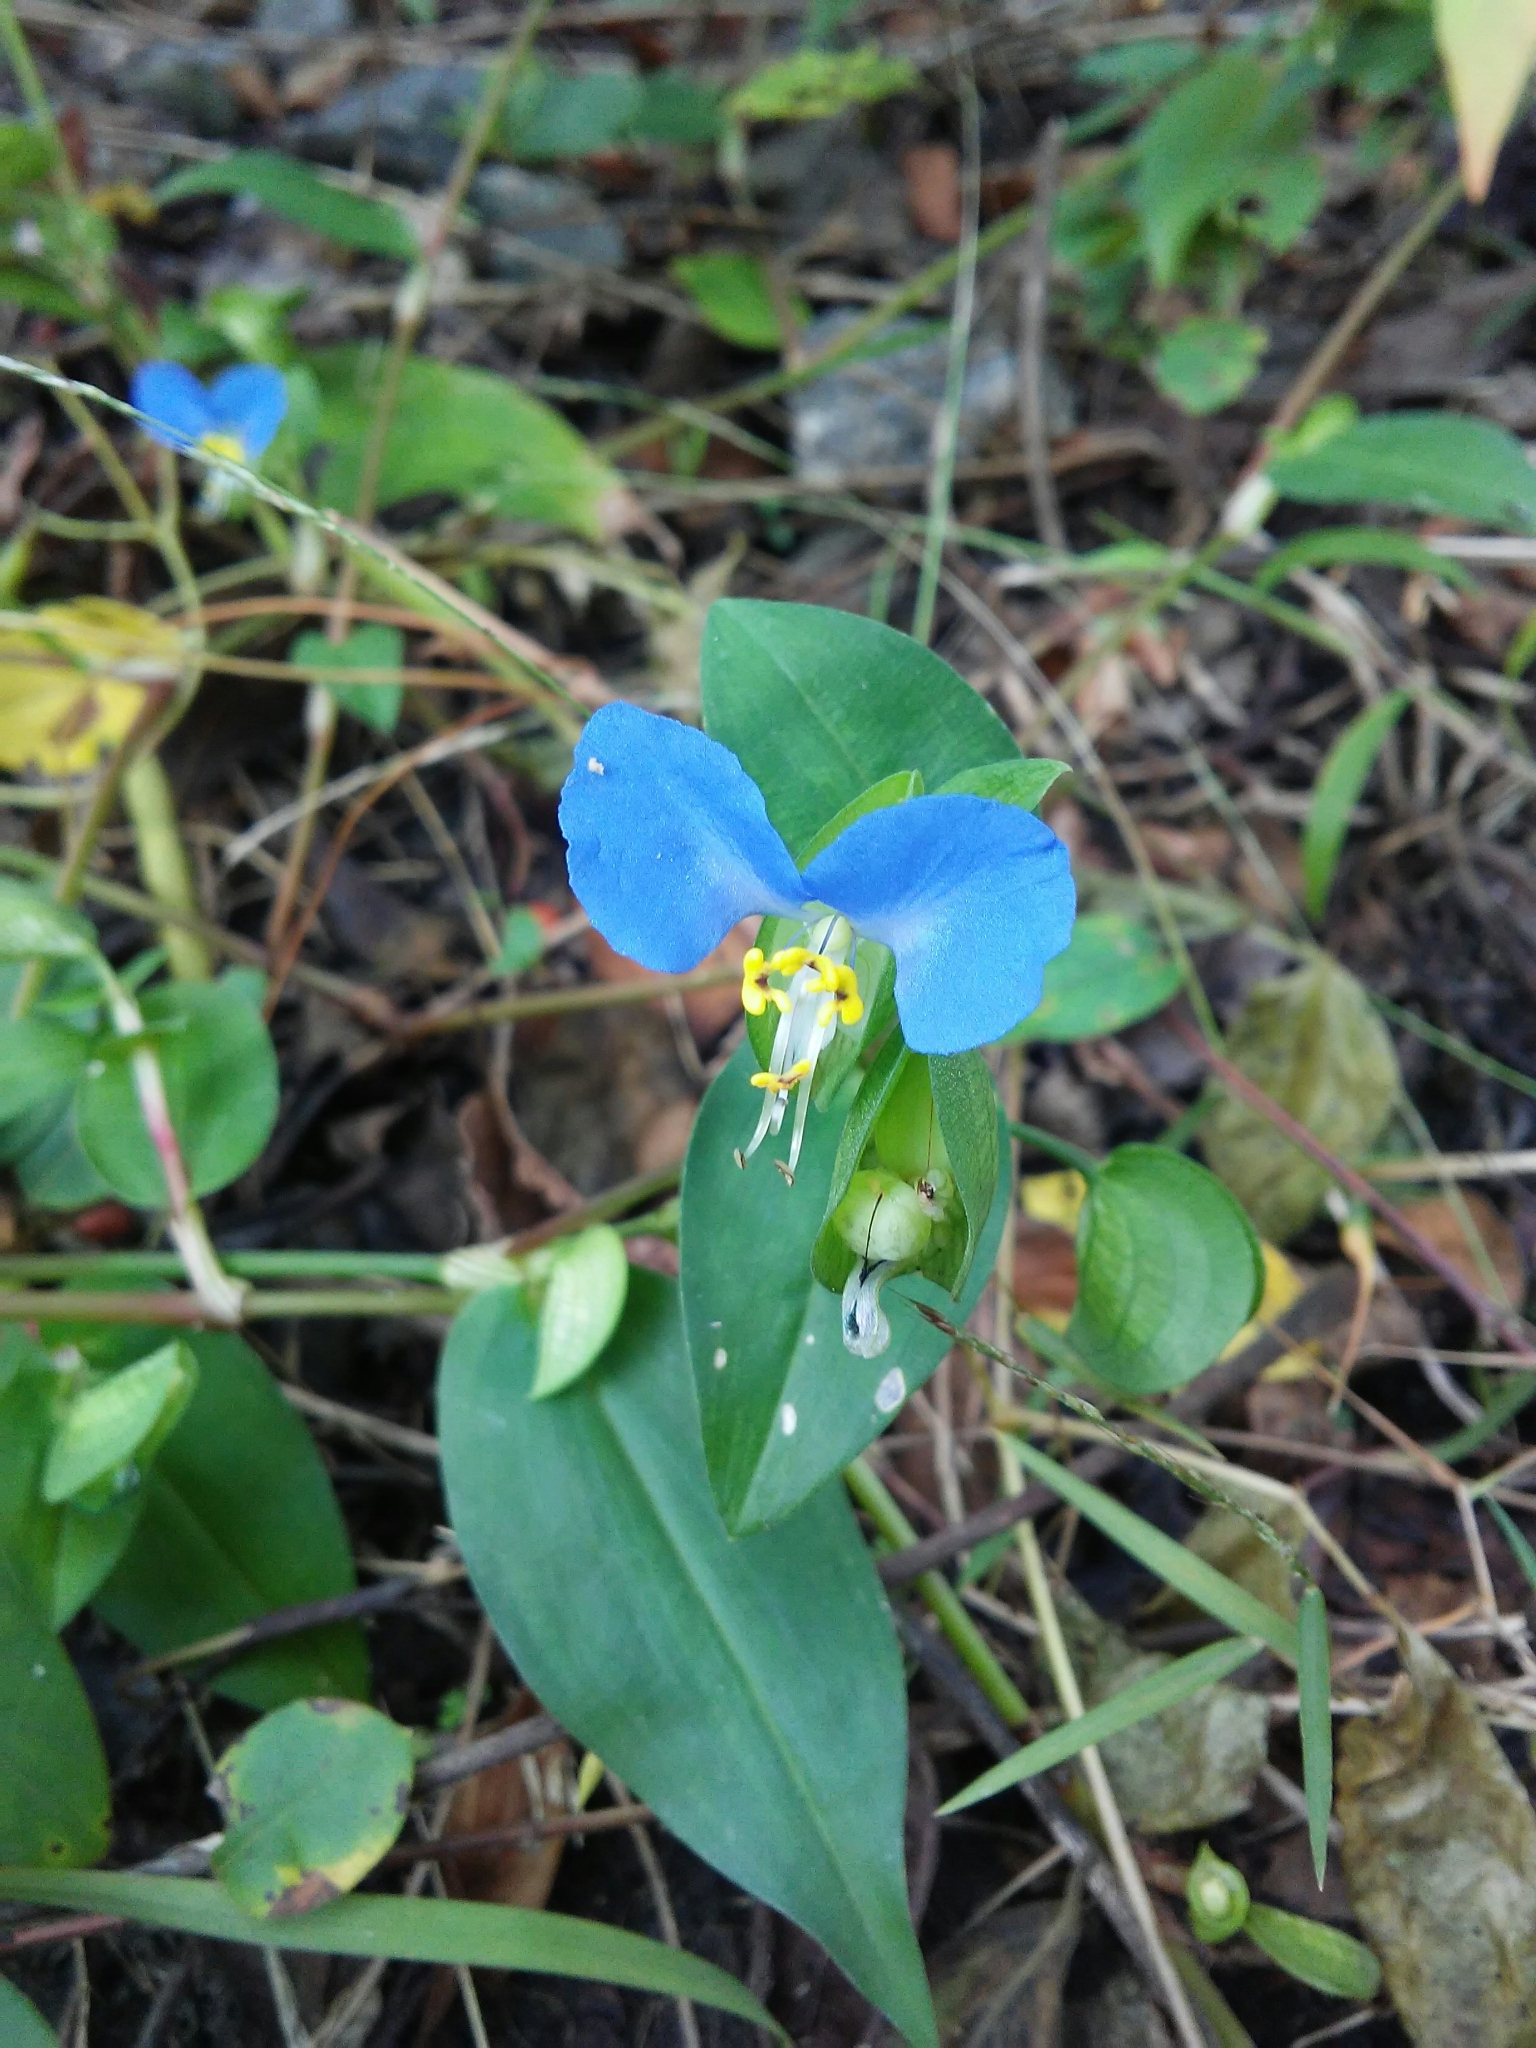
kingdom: Plantae
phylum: Tracheophyta
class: Liliopsida
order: Commelinales
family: Commelinaceae
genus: Commelina
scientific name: Commelina communis
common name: Asiatic dayflower
